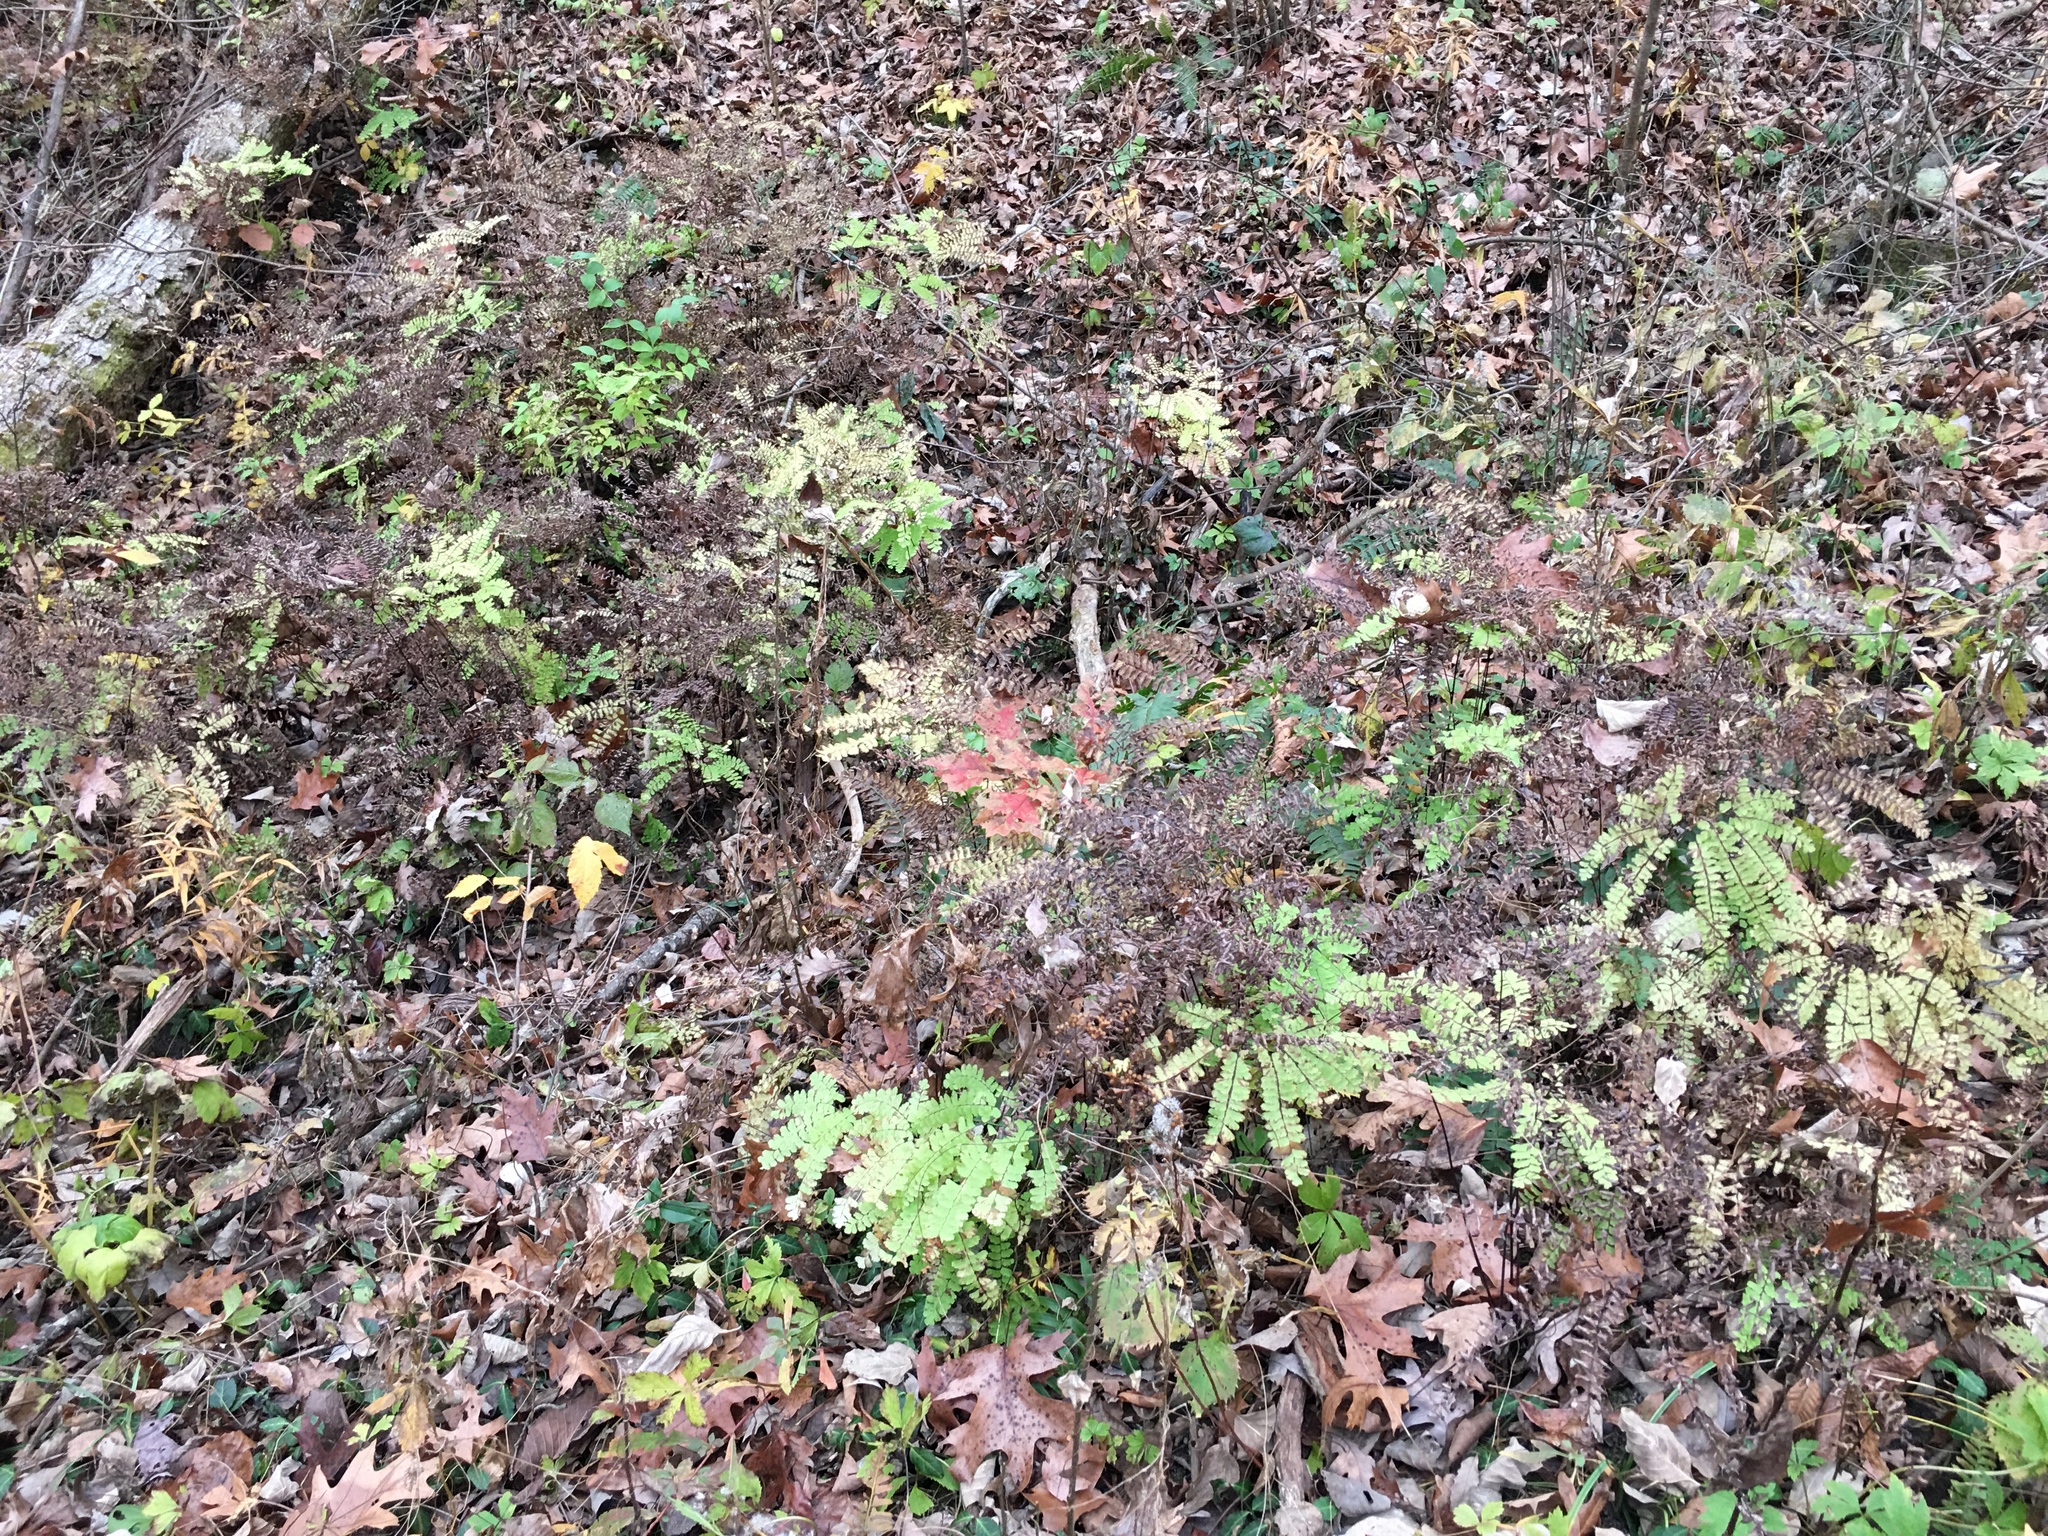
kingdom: Plantae
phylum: Tracheophyta
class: Polypodiopsida
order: Polypodiales
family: Pteridaceae
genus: Adiantum
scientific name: Adiantum pedatum
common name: Five-finger fern
